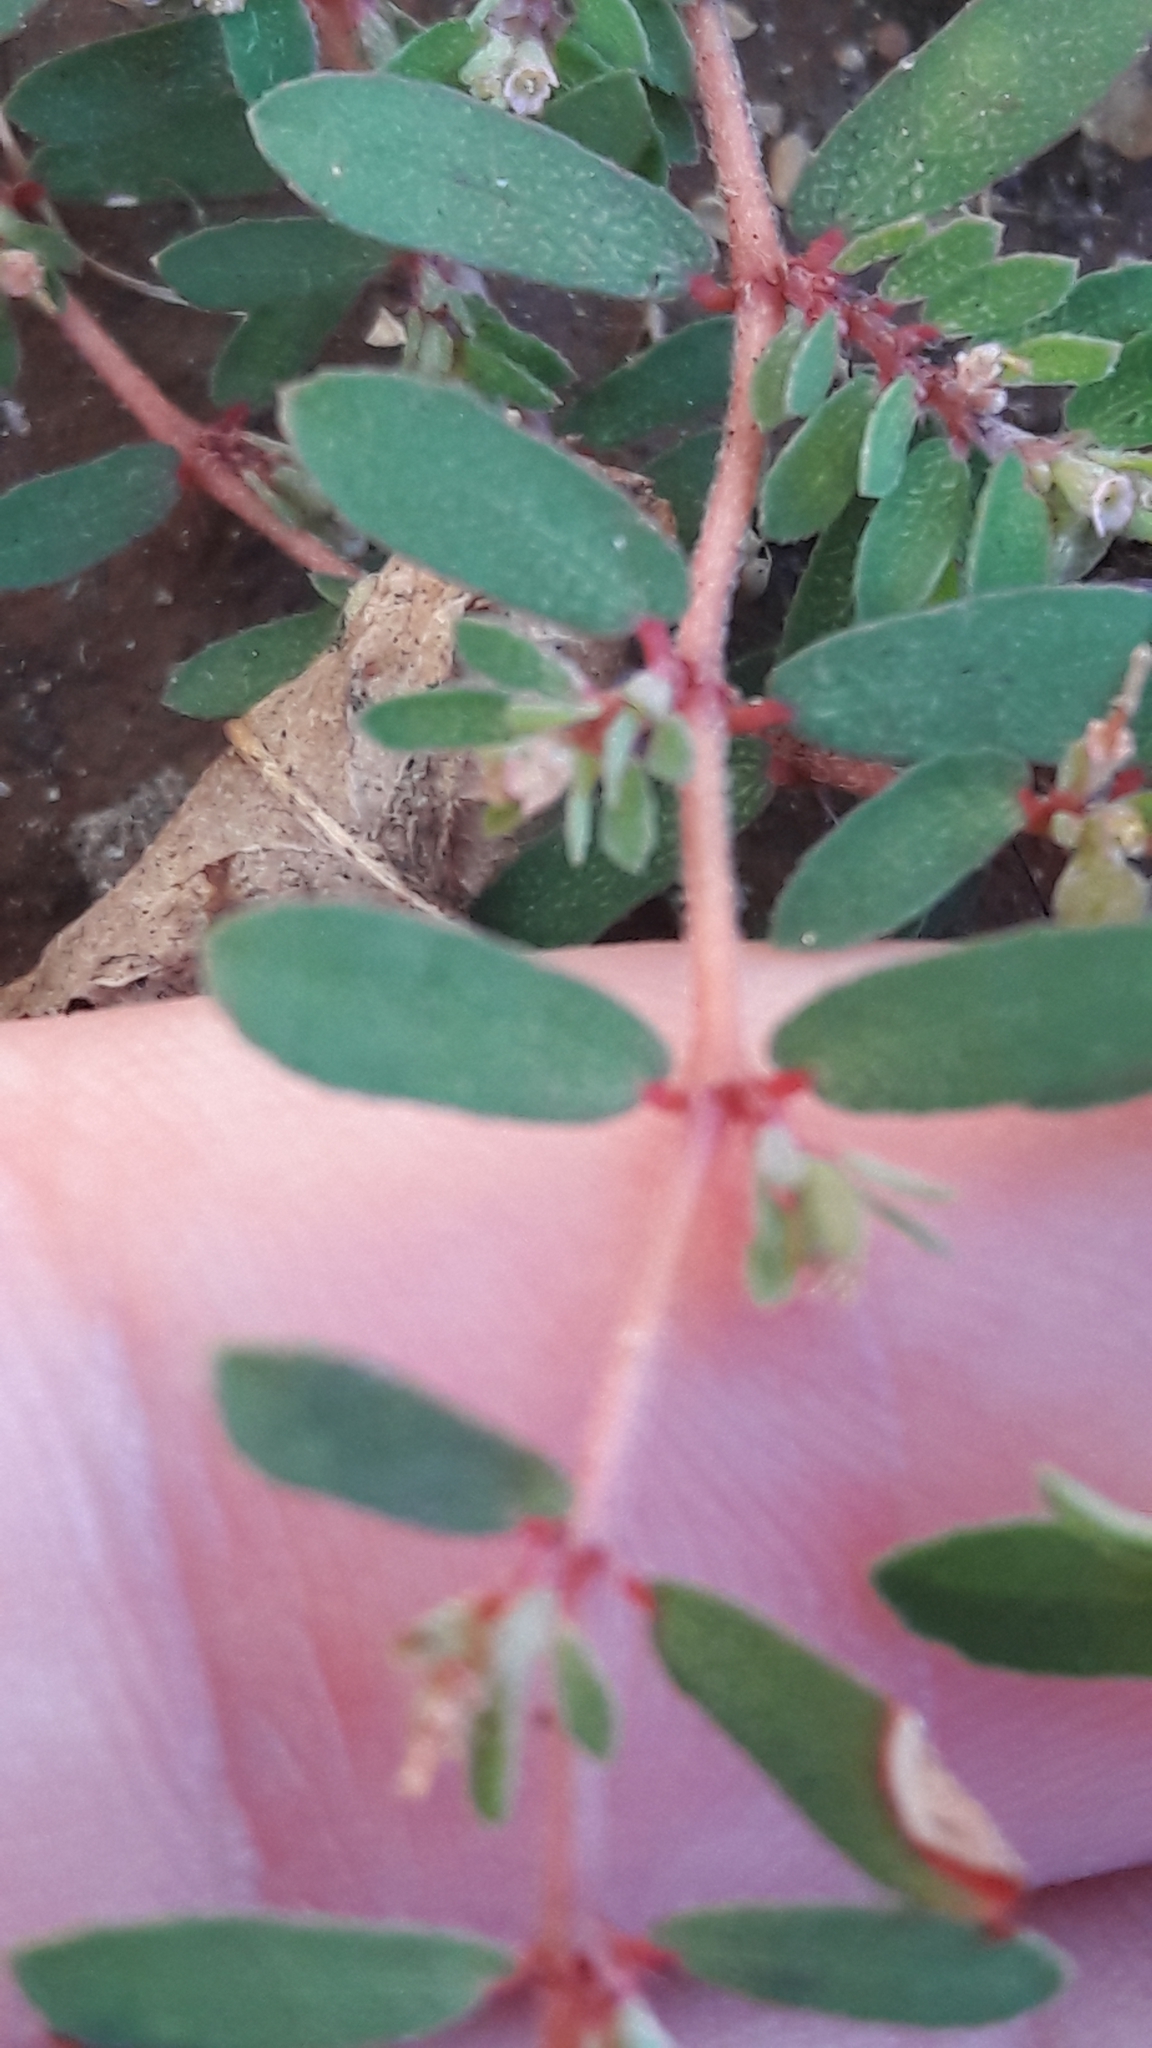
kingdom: Plantae
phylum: Tracheophyta
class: Magnoliopsida
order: Malpighiales
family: Euphorbiaceae
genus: Euphorbia
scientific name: Euphorbia maculata
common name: Spotted spurge
